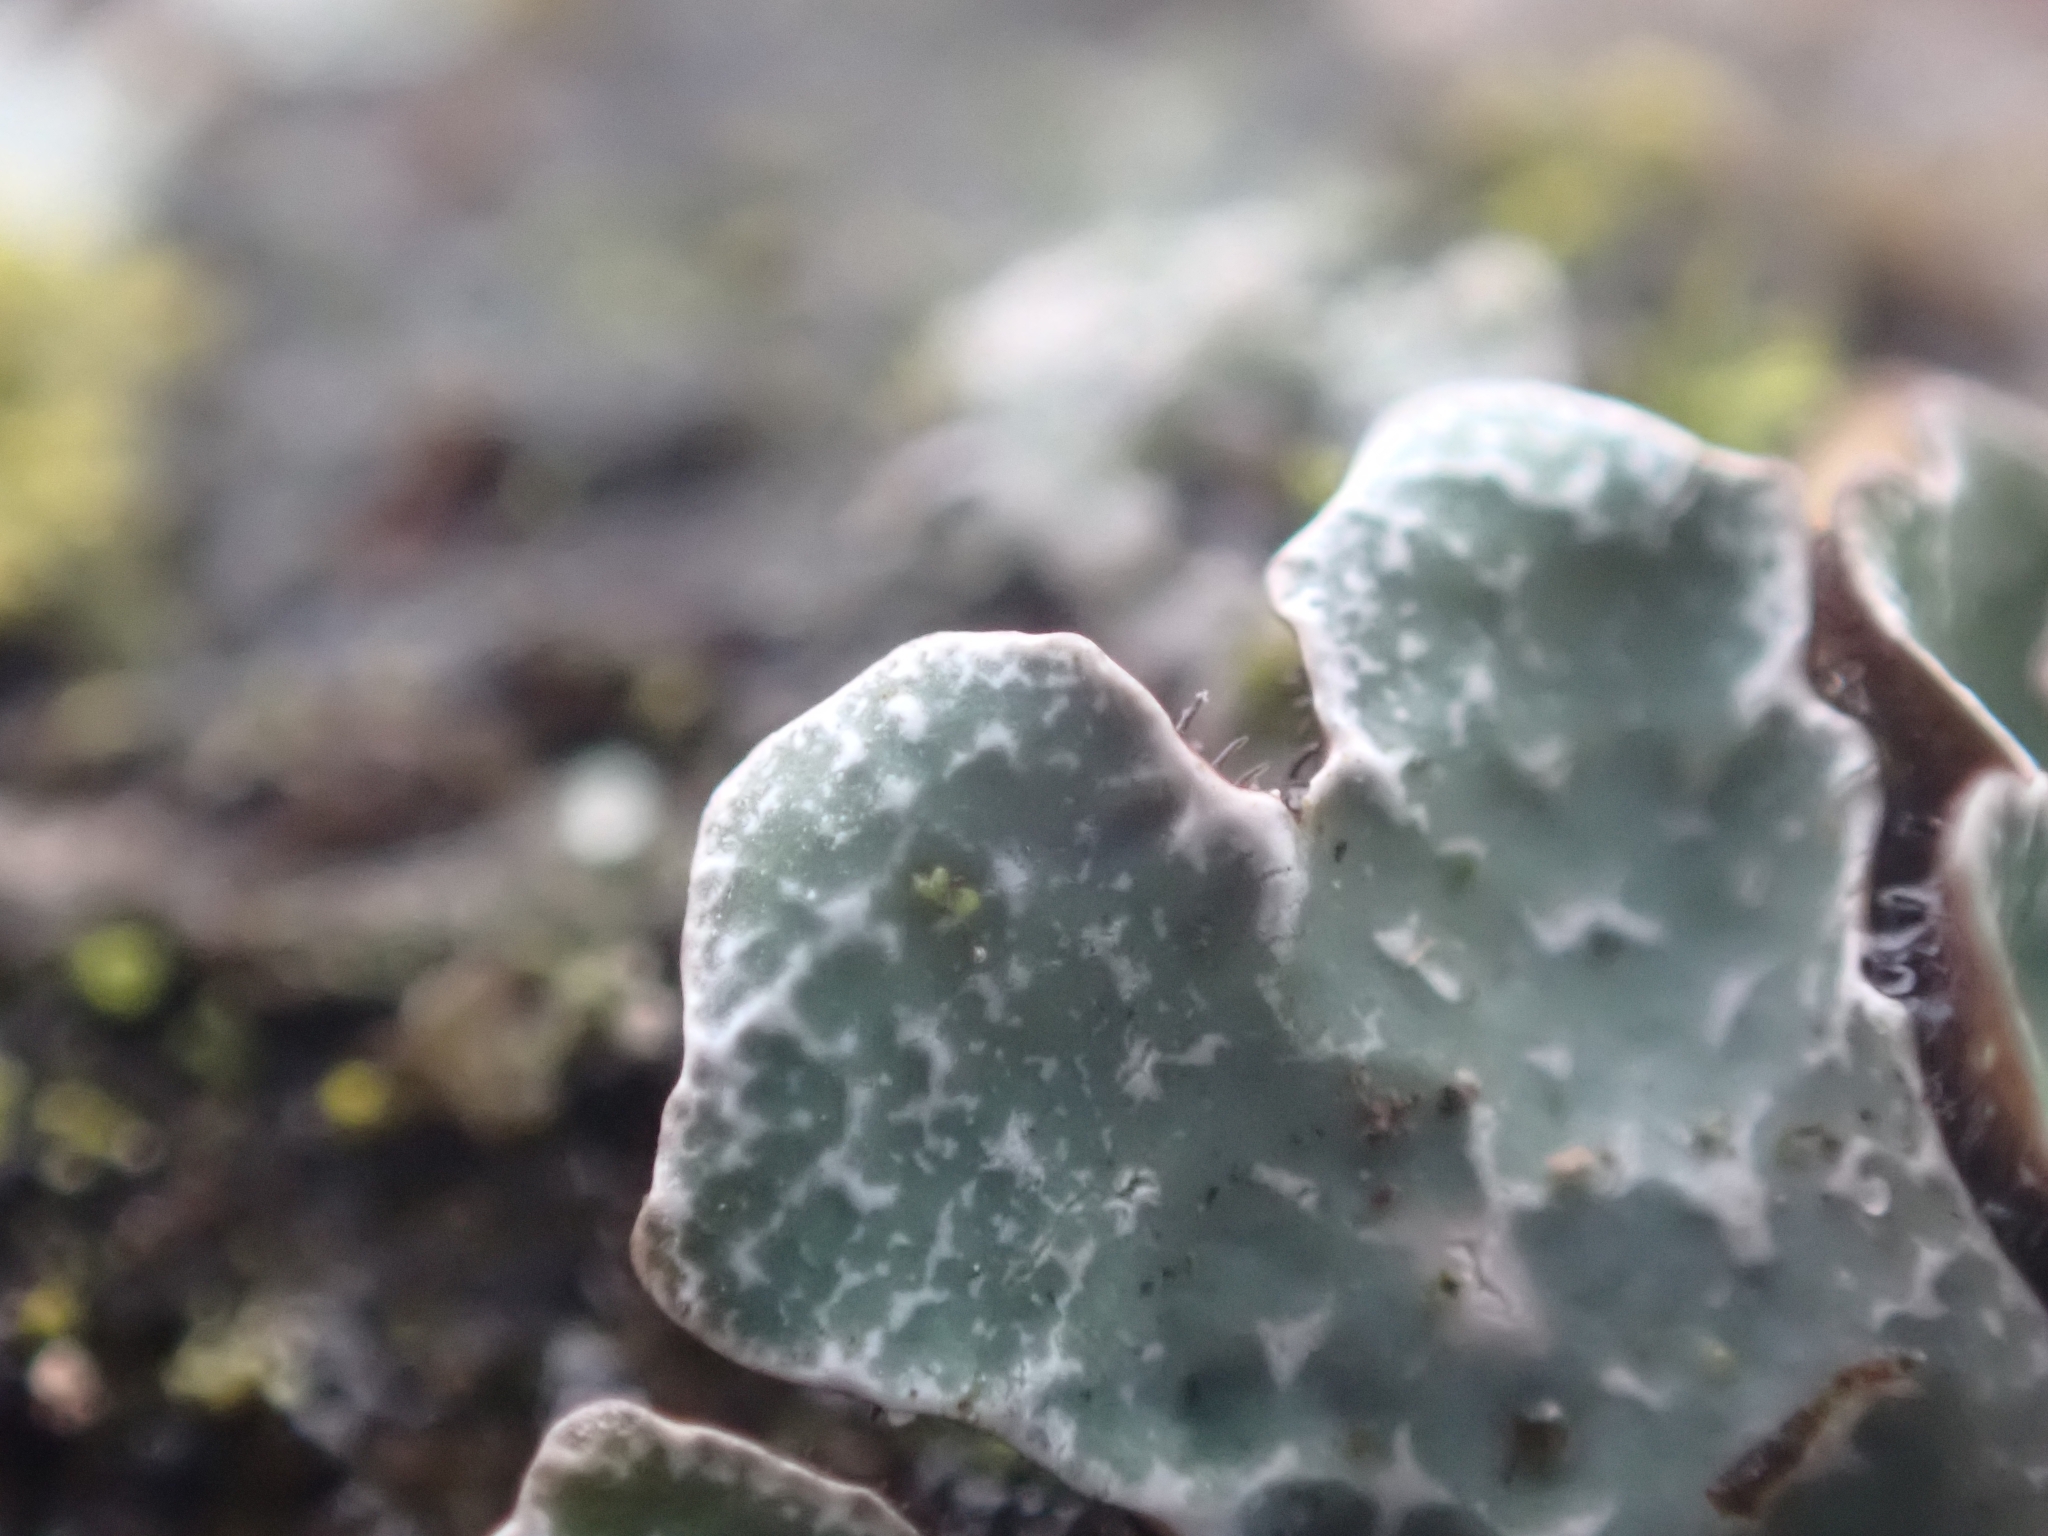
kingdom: Fungi
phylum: Ascomycota
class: Lecanoromycetes
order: Lecanorales
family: Parmeliaceae
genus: Parmelia
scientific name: Parmelia sulcata
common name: Netted shield lichen
